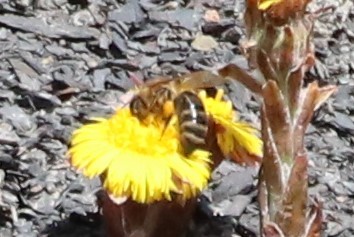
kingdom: Animalia
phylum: Arthropoda
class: Insecta
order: Hymenoptera
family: Apidae
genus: Apis
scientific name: Apis mellifera
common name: Honey bee
